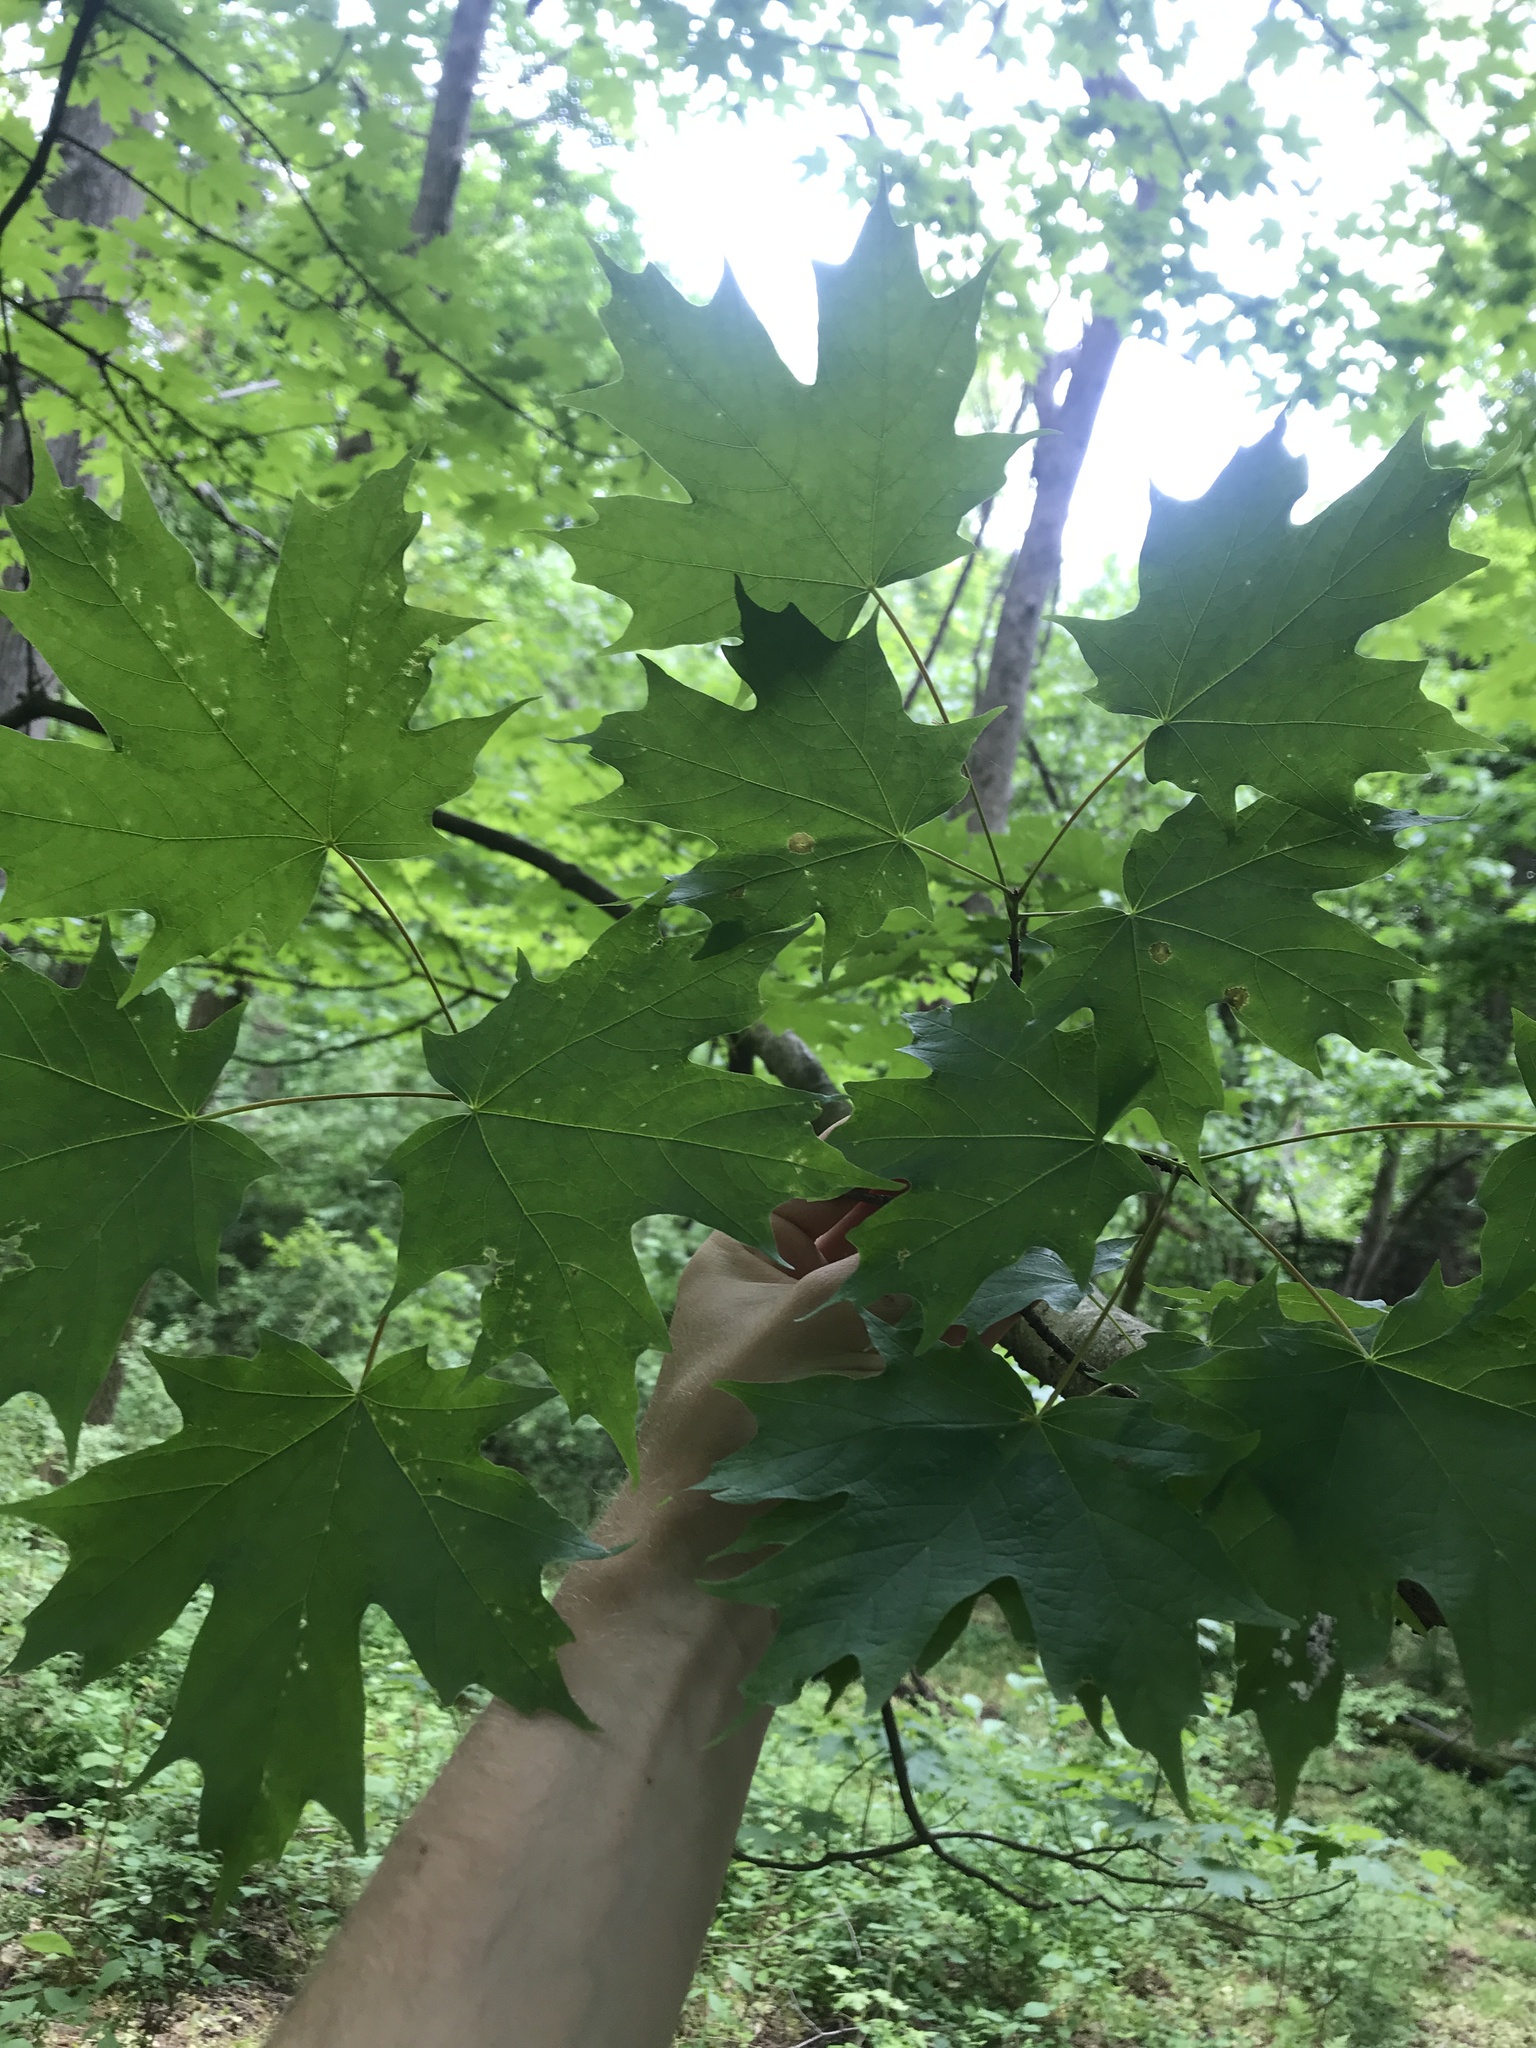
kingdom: Plantae
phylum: Tracheophyta
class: Magnoliopsida
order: Sapindales
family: Sapindaceae
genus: Acer
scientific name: Acer saccharum
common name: Sugar maple
